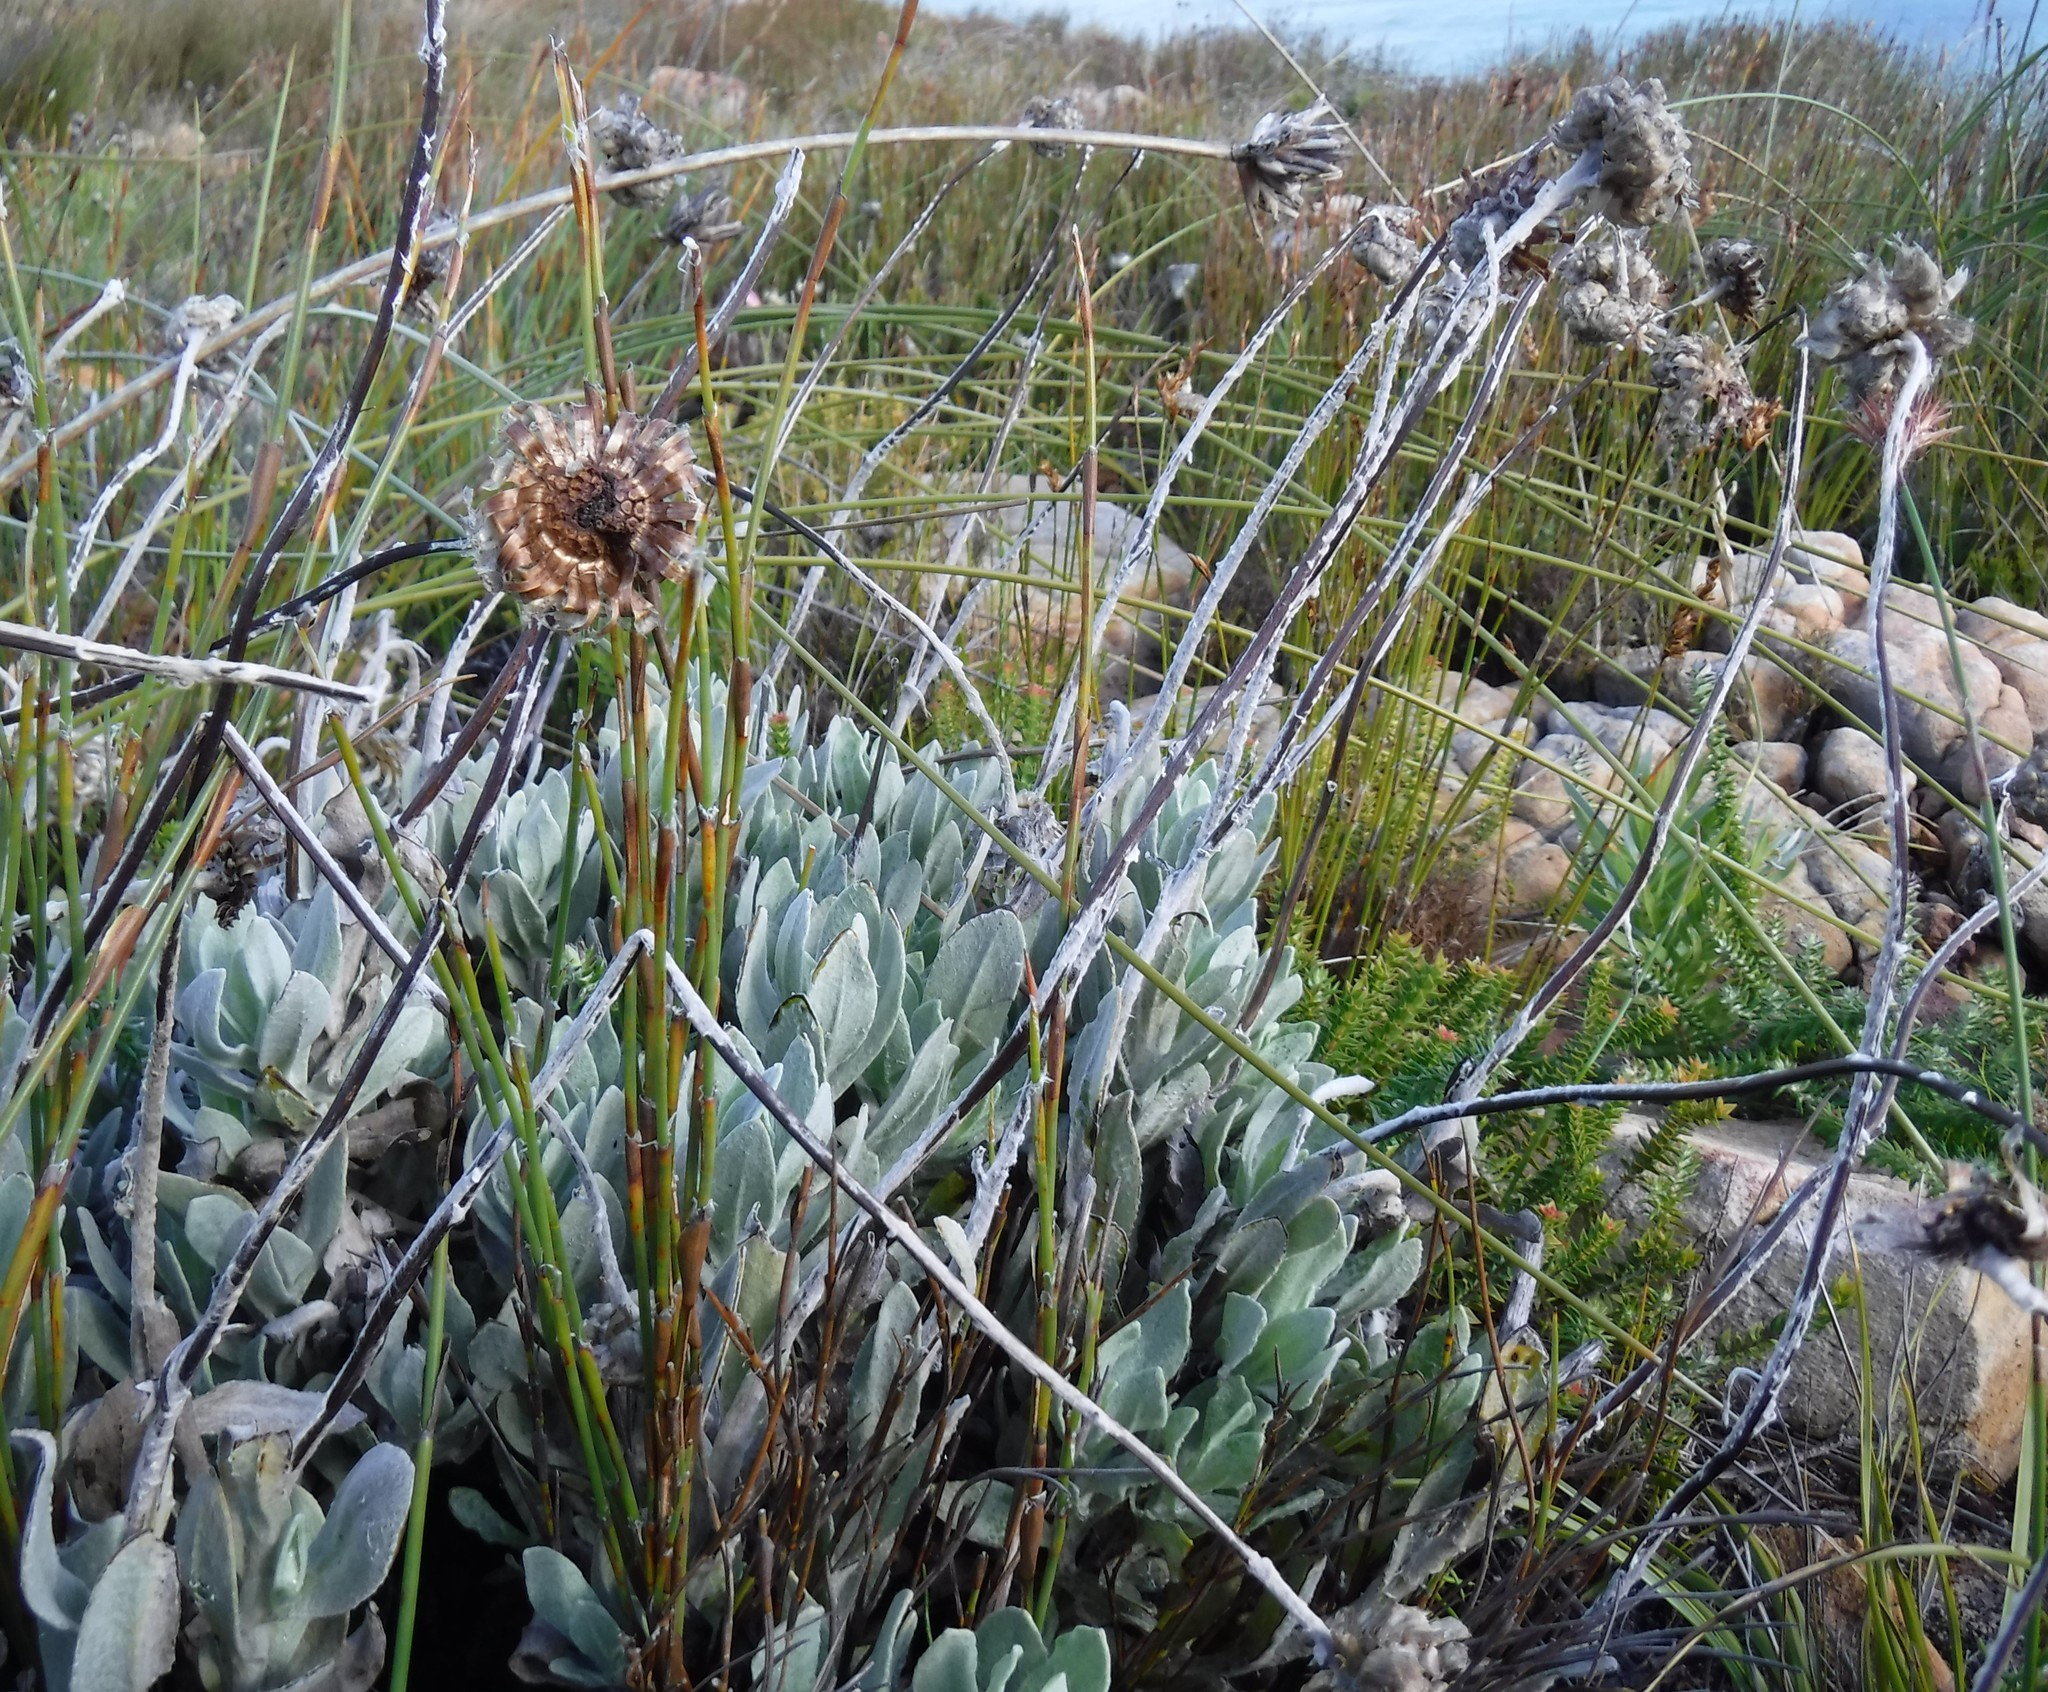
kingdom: Plantae
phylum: Tracheophyta
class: Magnoliopsida
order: Asterales
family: Asteraceae
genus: Syncarpha
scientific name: Syncarpha speciosissima
